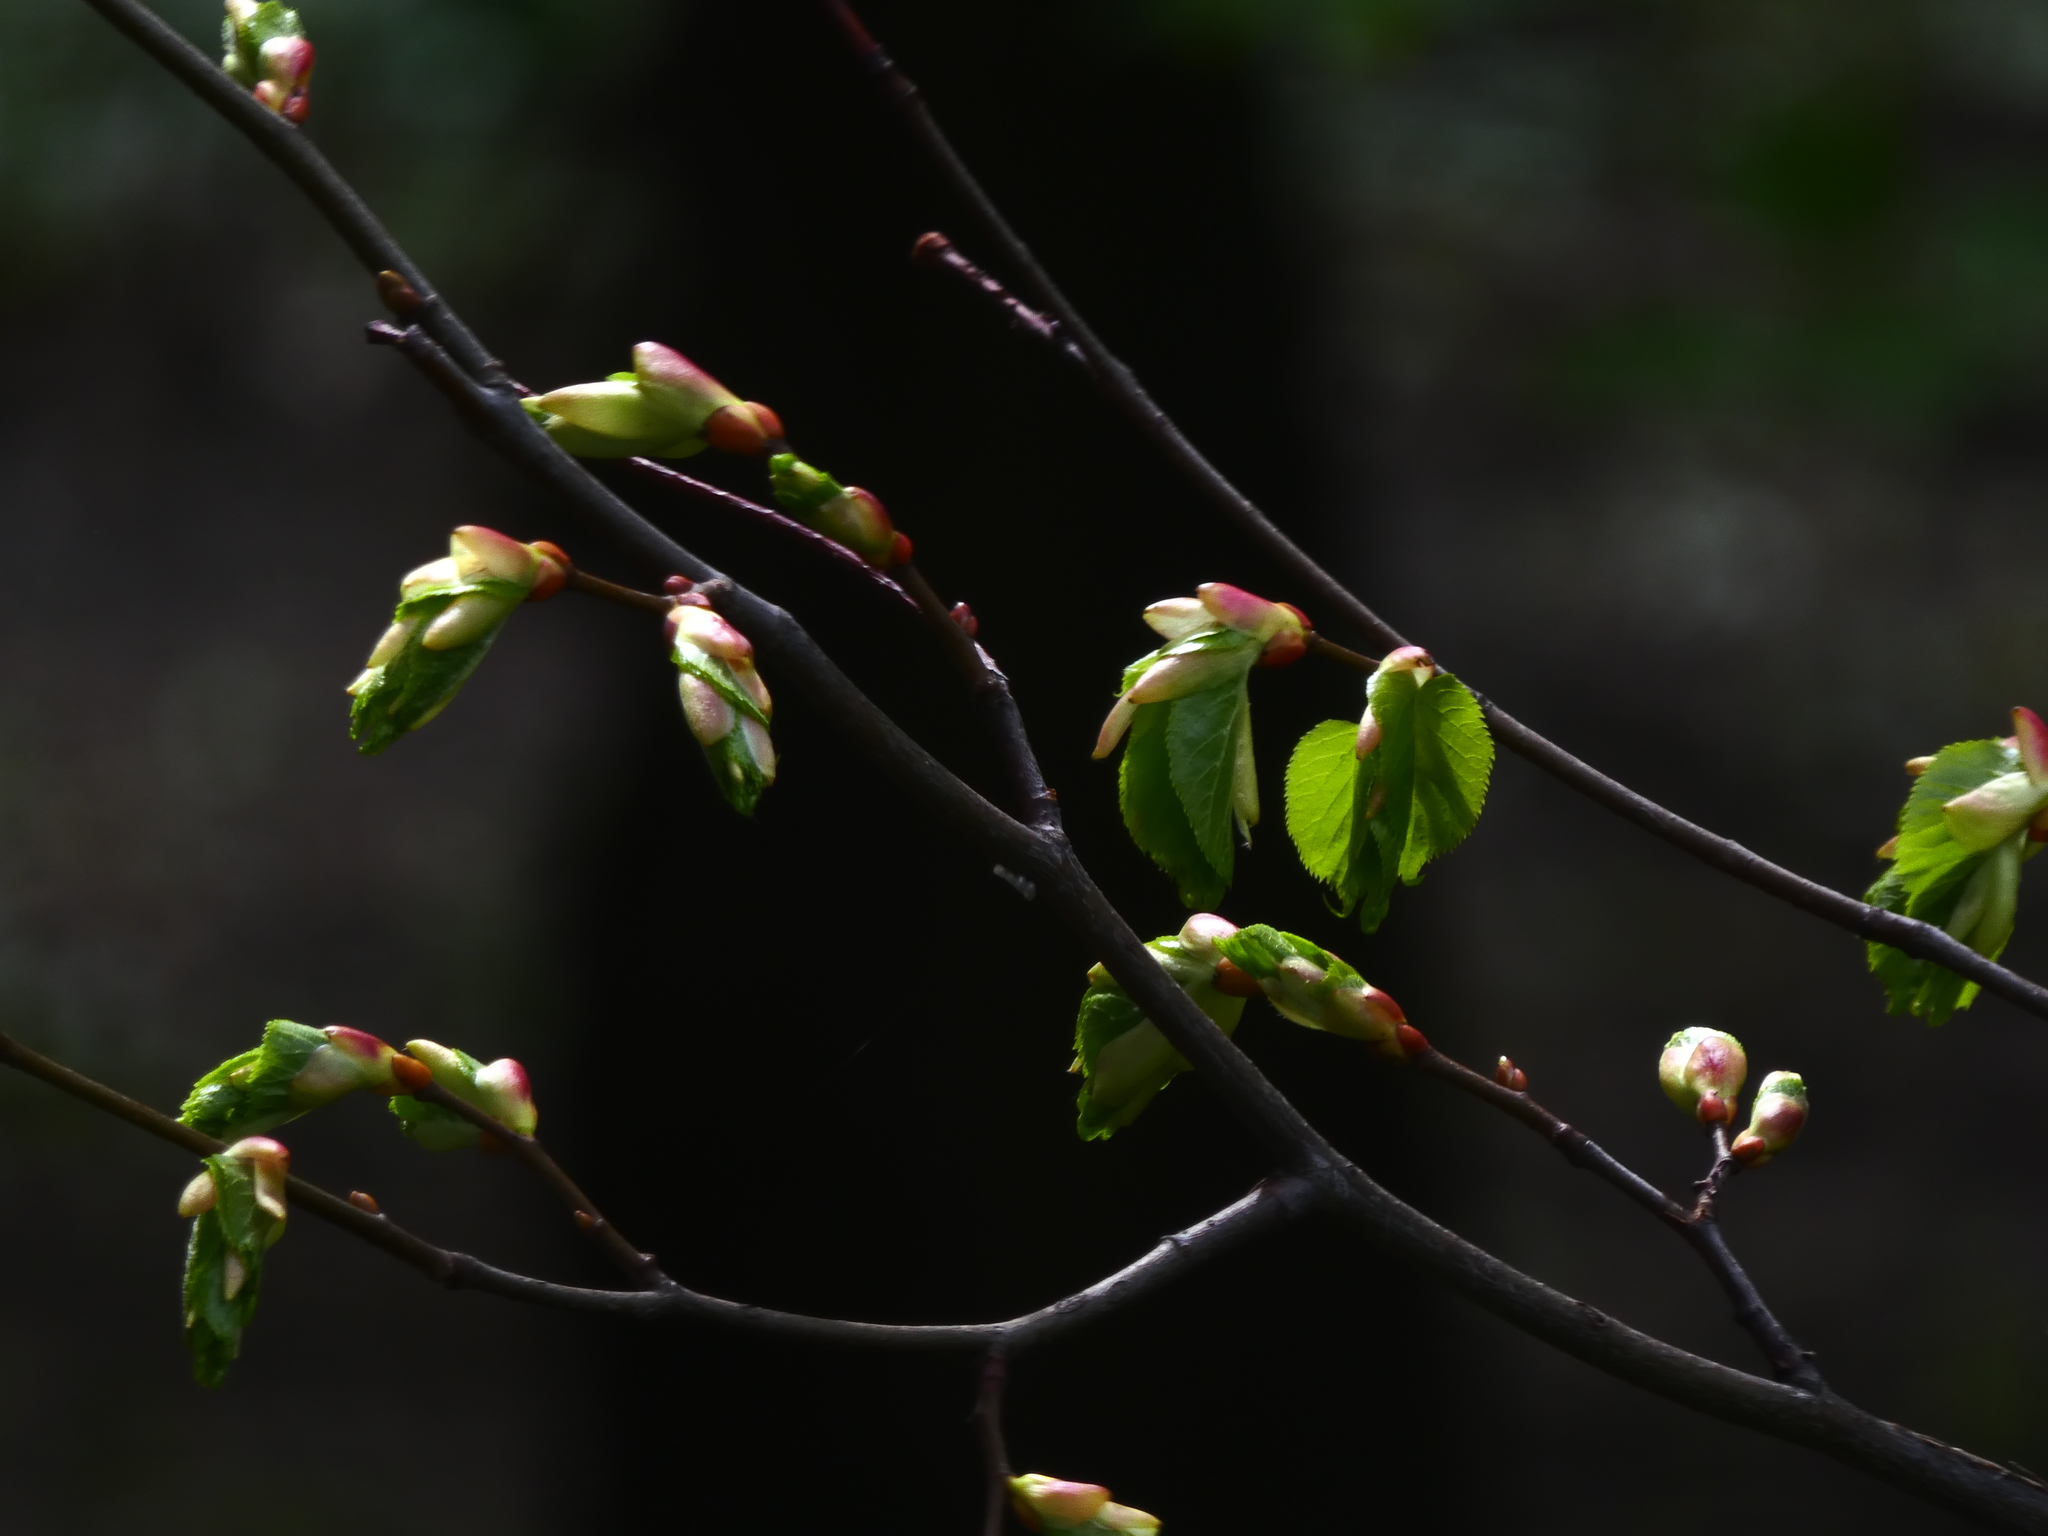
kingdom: Plantae
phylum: Tracheophyta
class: Magnoliopsida
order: Malvales
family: Malvaceae
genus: Tilia
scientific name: Tilia cordata
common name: Small-leaved lime
